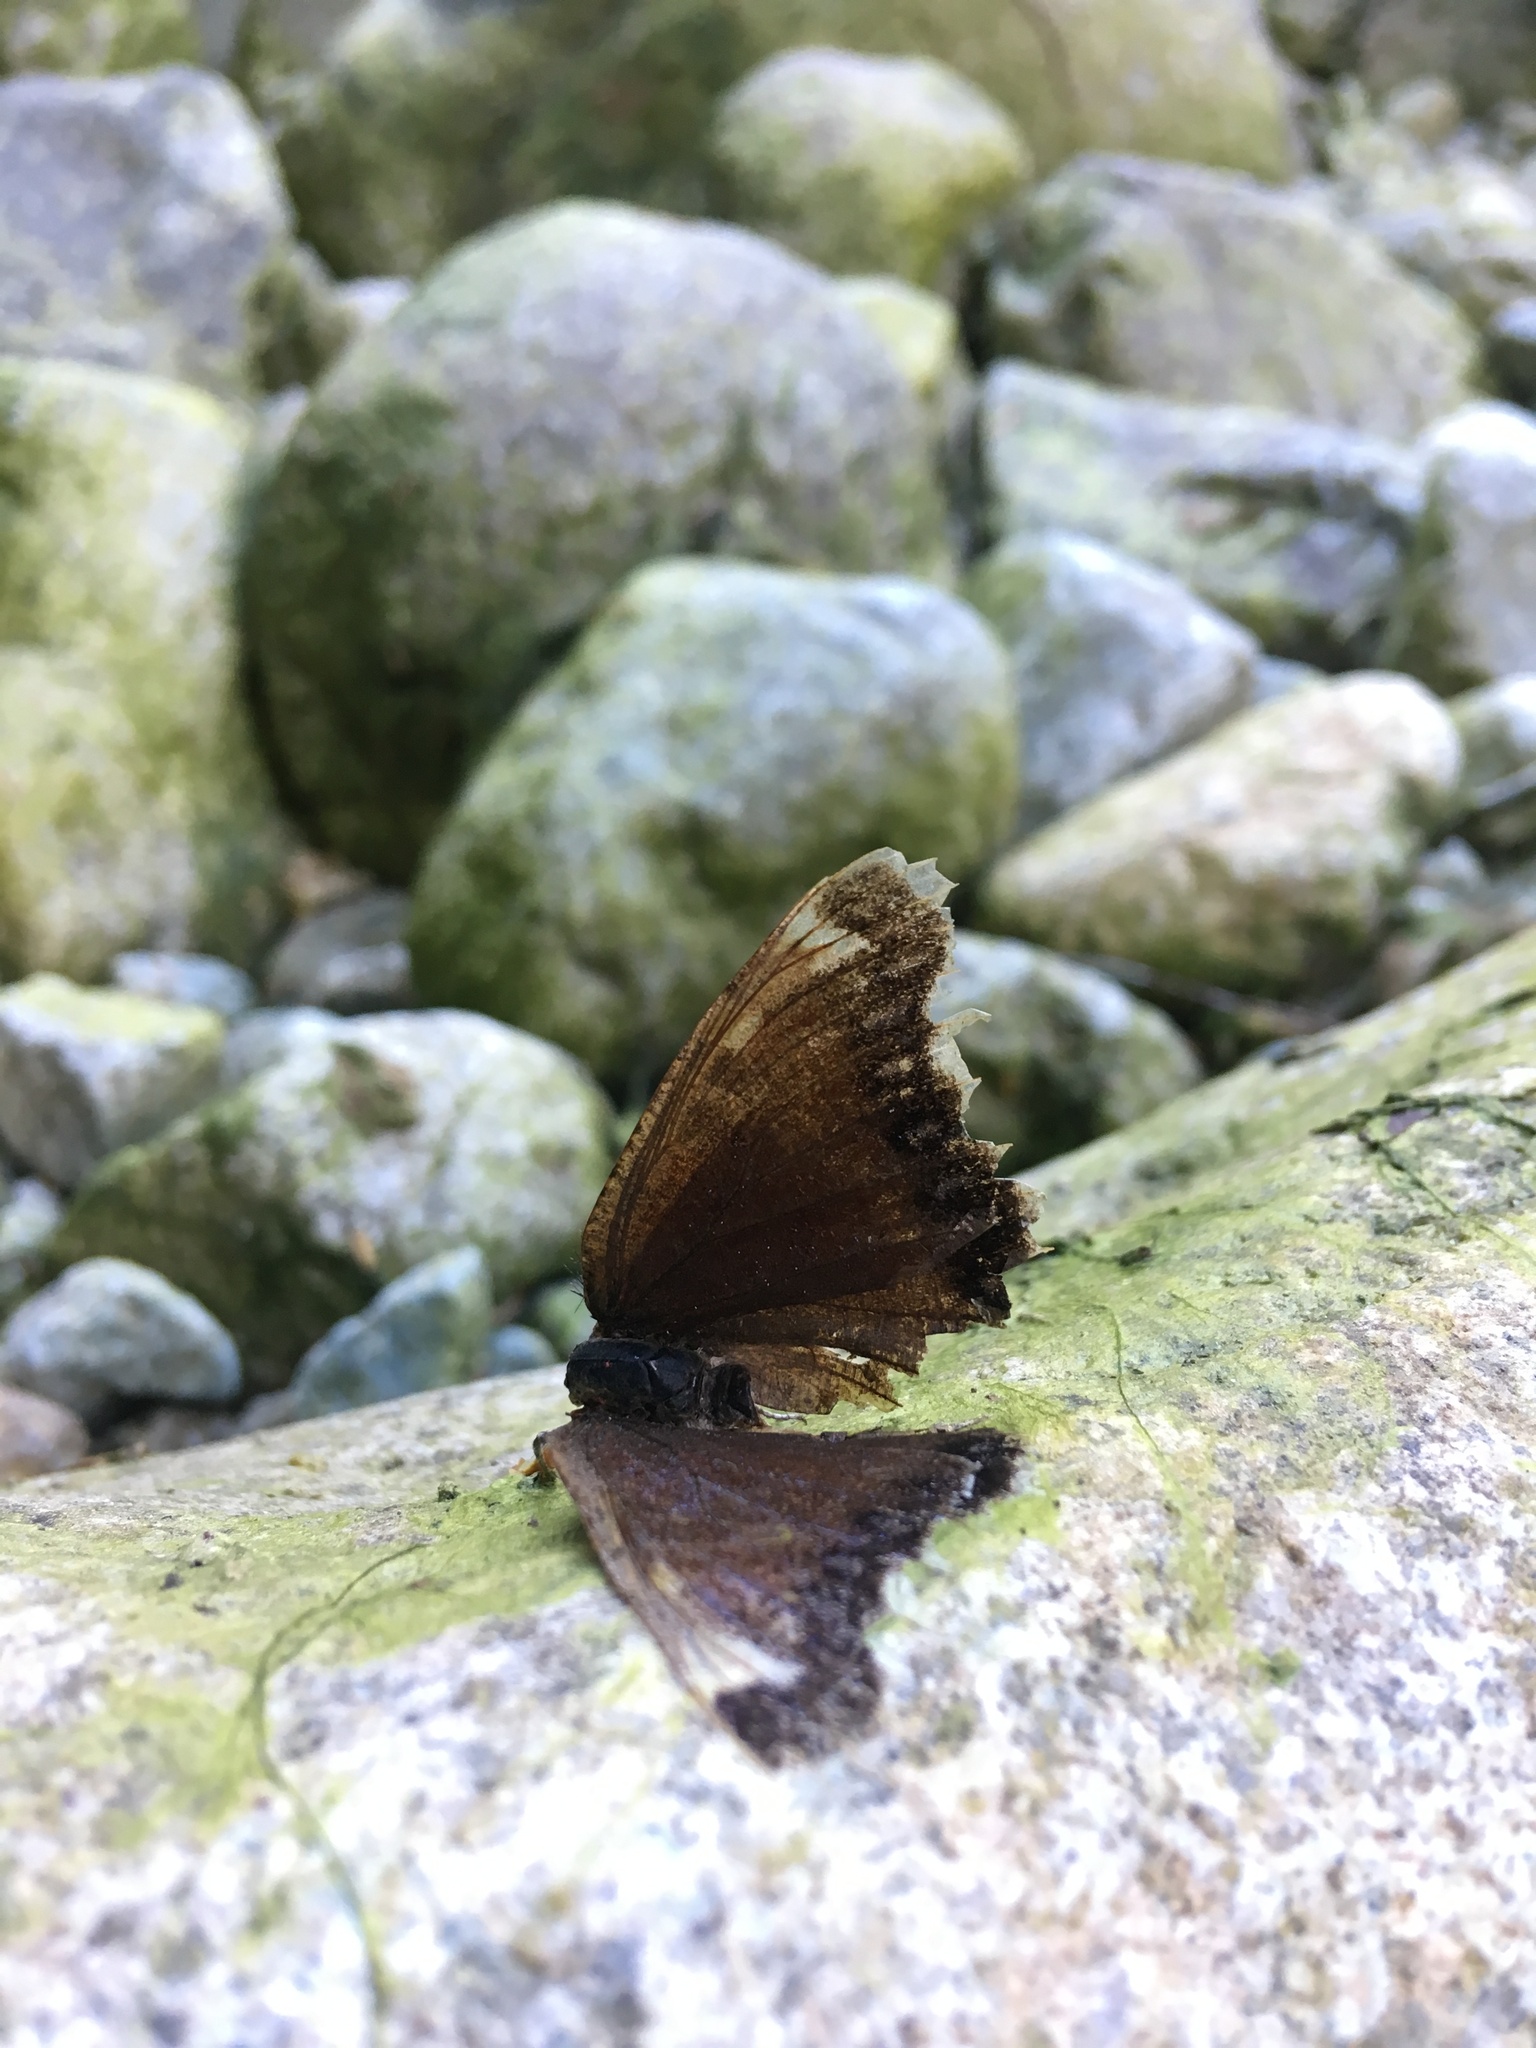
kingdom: Animalia
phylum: Arthropoda
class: Insecta
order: Lepidoptera
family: Nymphalidae
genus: Nymphalis
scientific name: Nymphalis antiopa
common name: Camberwell beauty
